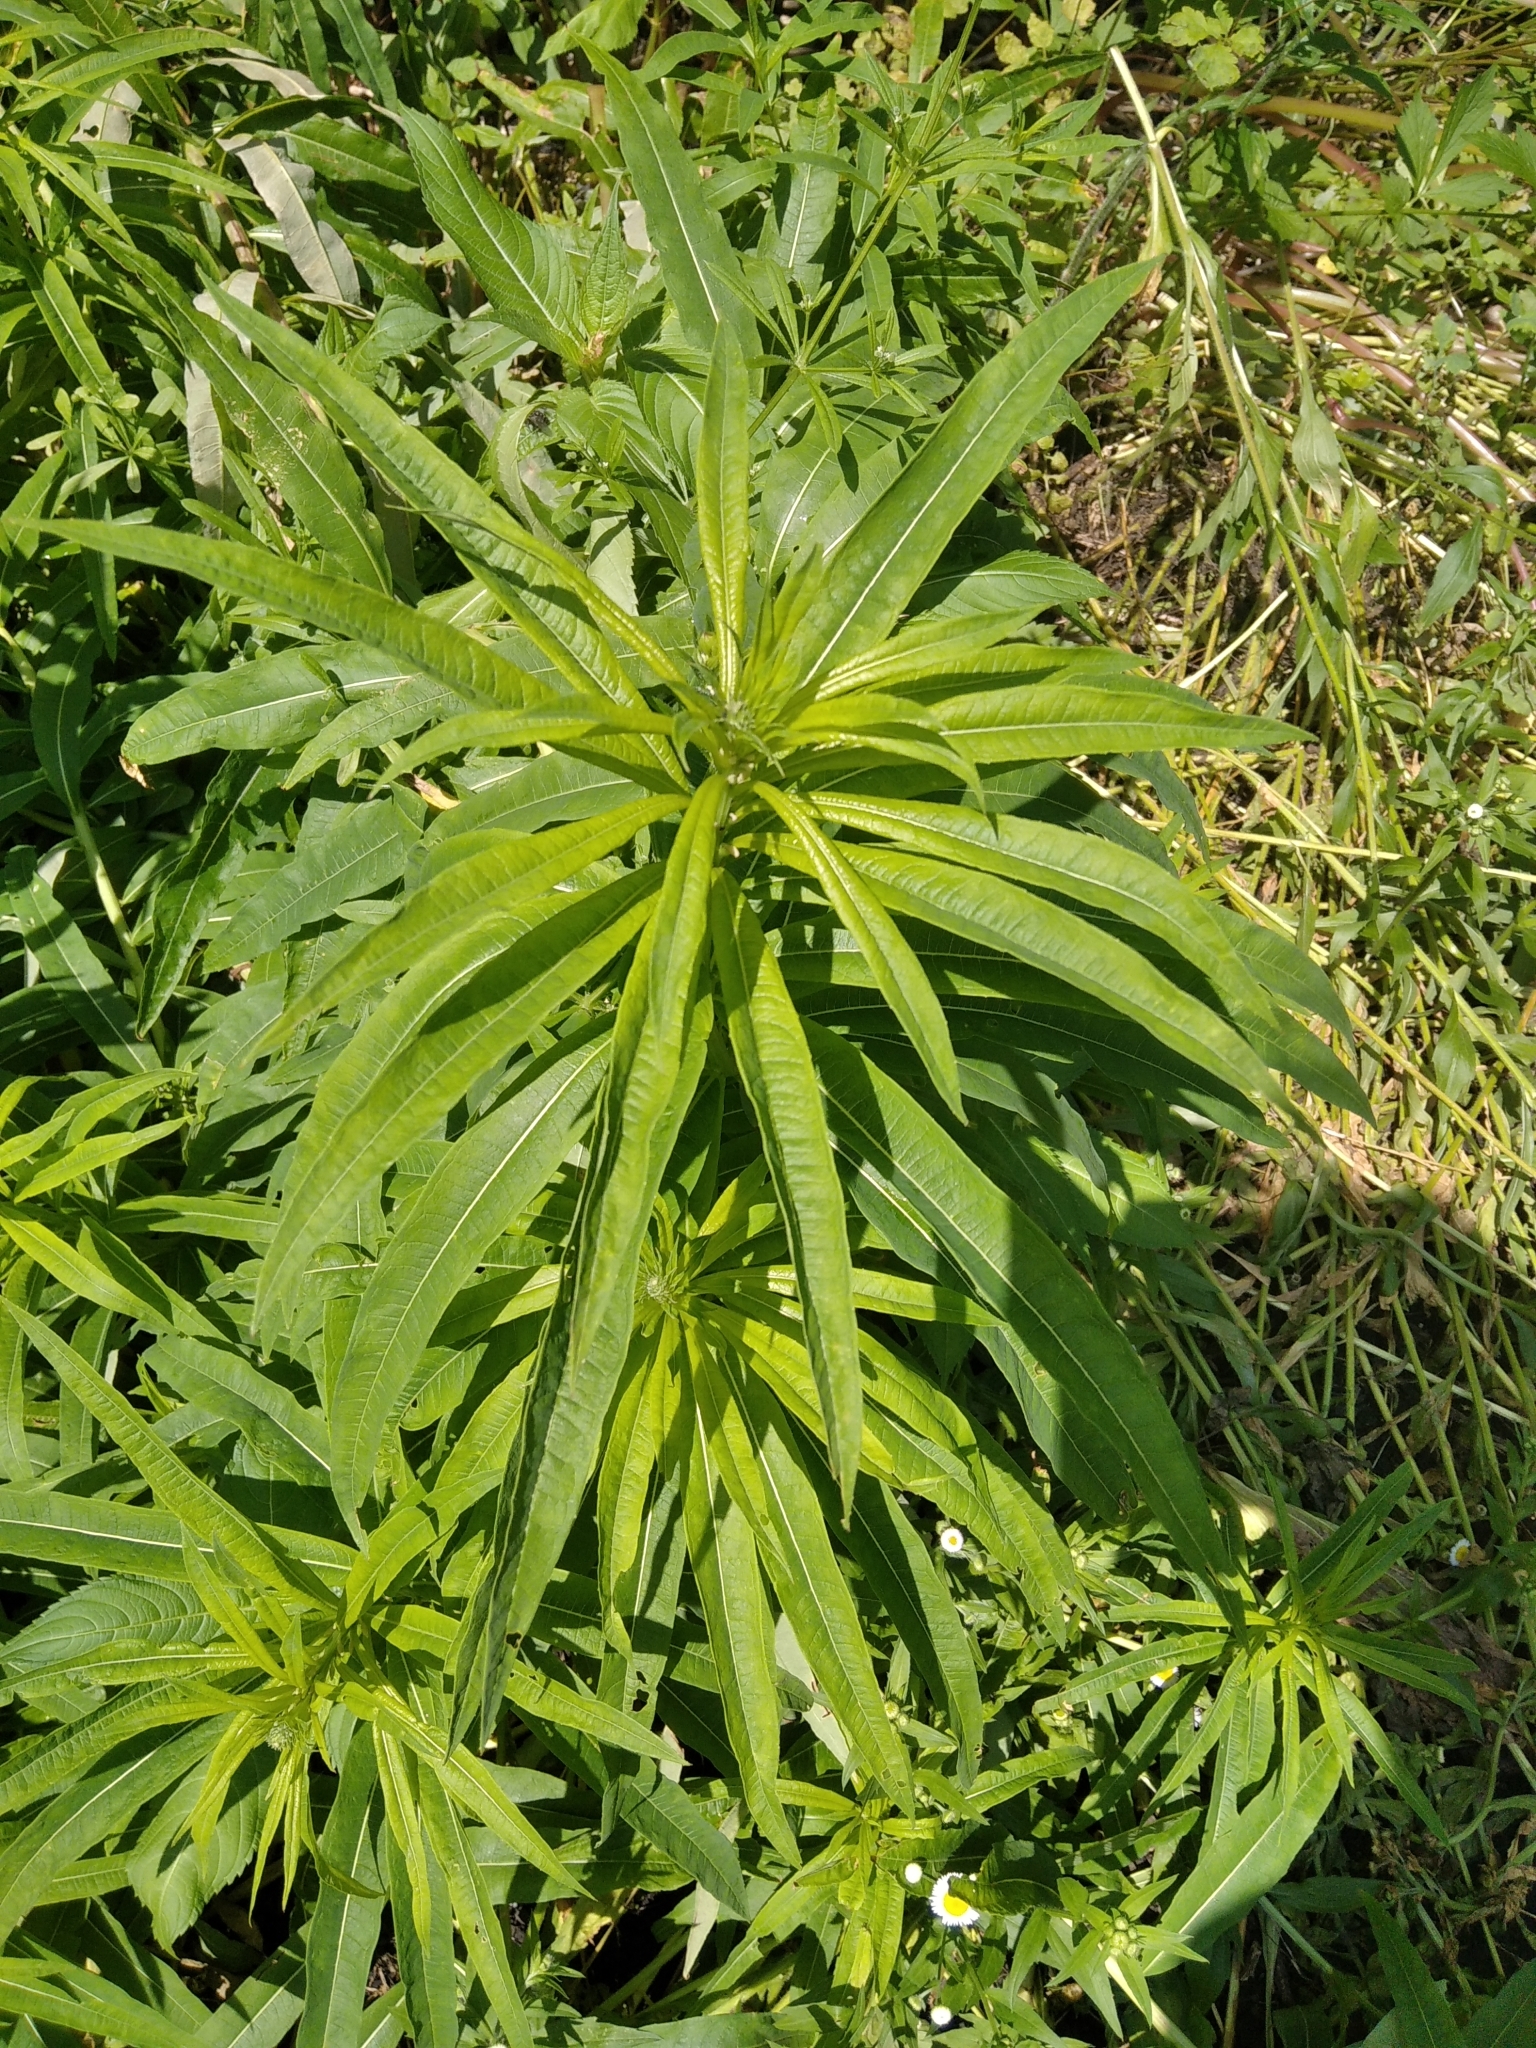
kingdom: Plantae
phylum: Tracheophyta
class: Magnoliopsida
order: Myrtales
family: Onagraceae
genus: Chamaenerion
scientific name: Chamaenerion angustifolium
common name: Fireweed
